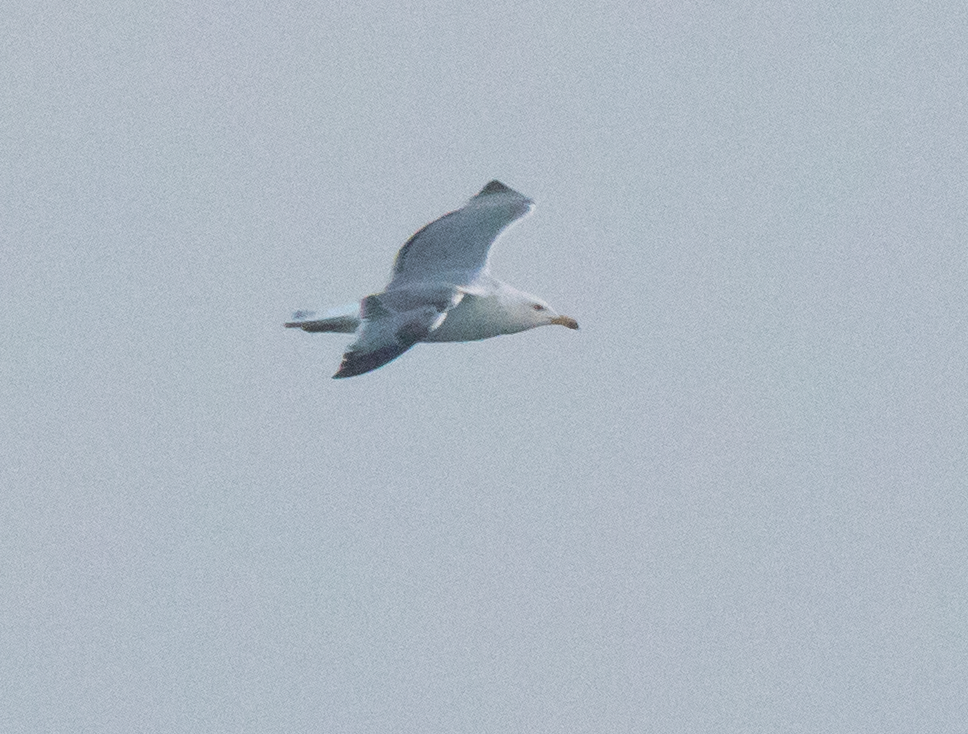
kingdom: Animalia
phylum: Chordata
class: Aves
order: Charadriiformes
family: Laridae
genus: Larus
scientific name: Larus michahellis
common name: Yellow-legged gull
